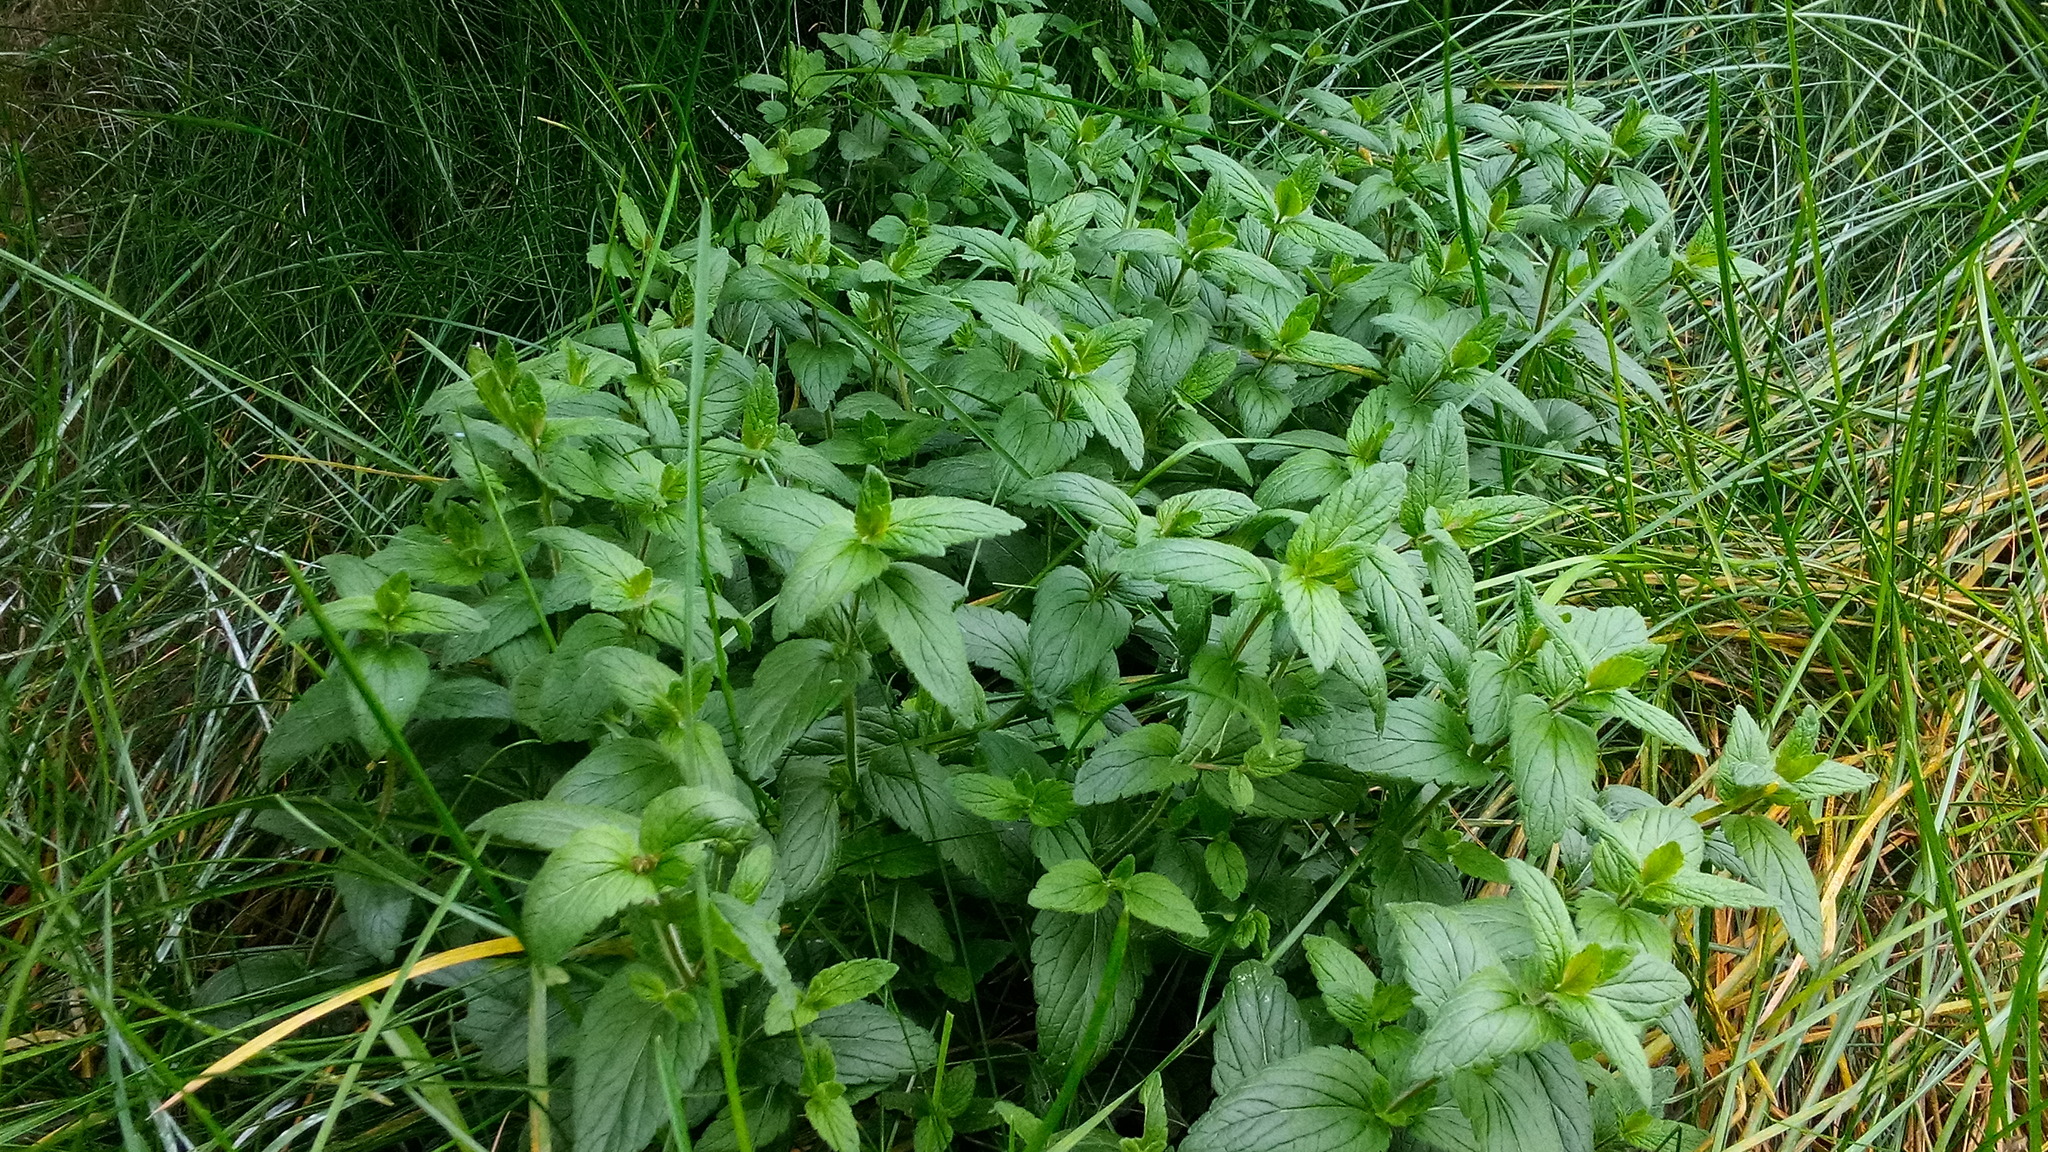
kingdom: Plantae
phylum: Tracheophyta
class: Magnoliopsida
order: Lamiales
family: Plantaginaceae
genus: Veronica
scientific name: Veronica chamaedrys
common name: Germander speedwell
